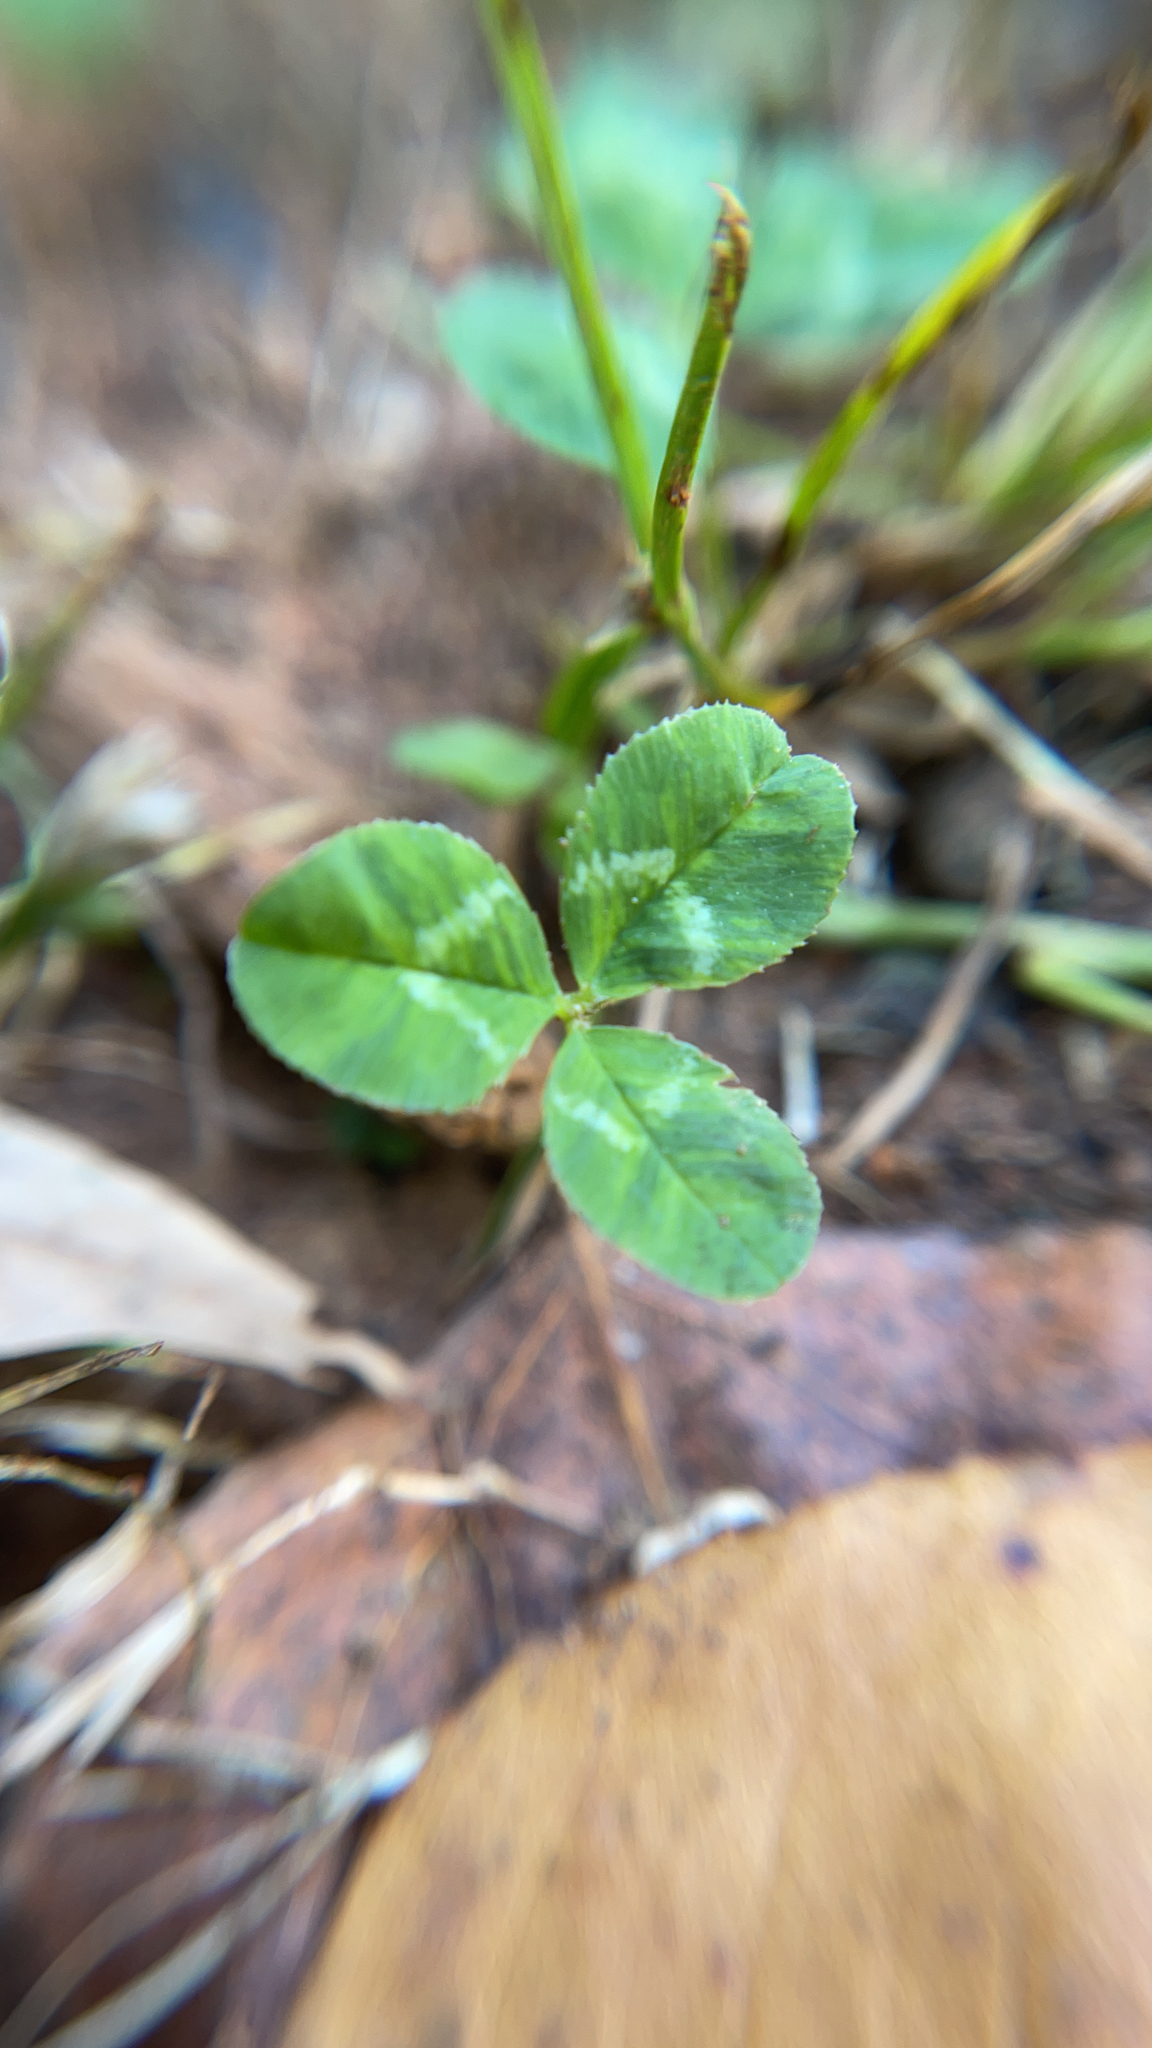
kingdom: Plantae
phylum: Tracheophyta
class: Magnoliopsida
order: Fabales
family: Fabaceae
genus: Trifolium
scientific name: Trifolium repens
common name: White clover
